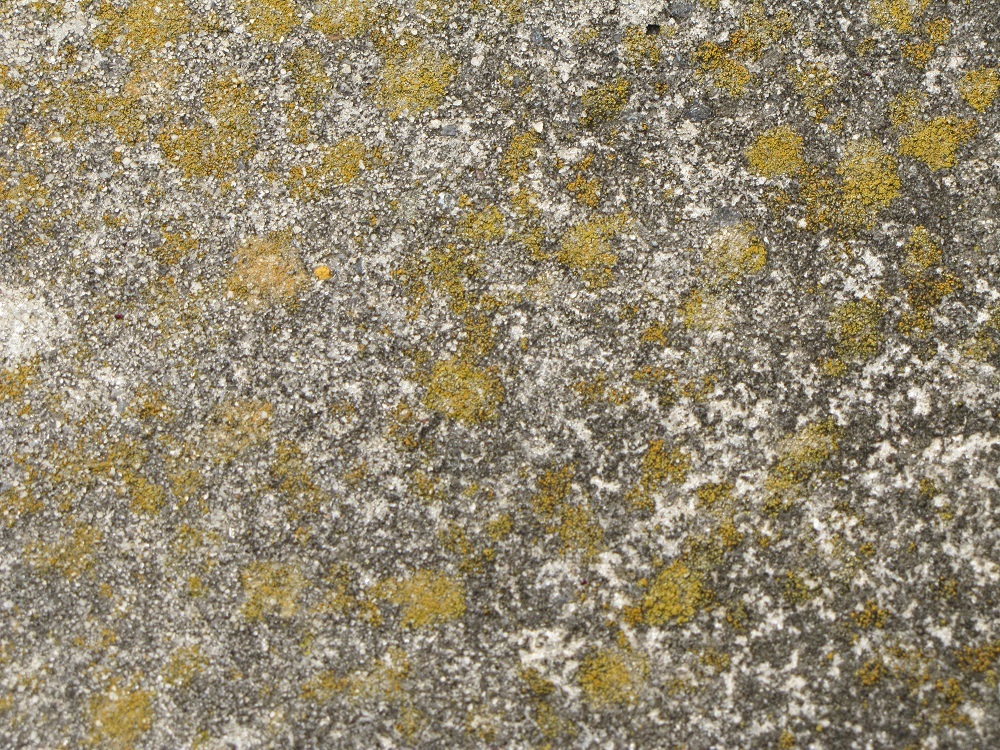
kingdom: Fungi
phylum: Ascomycota
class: Lecanoromycetes
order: Teloschistales
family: Teloschistaceae
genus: Squamulea
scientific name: Squamulea subsoluta
